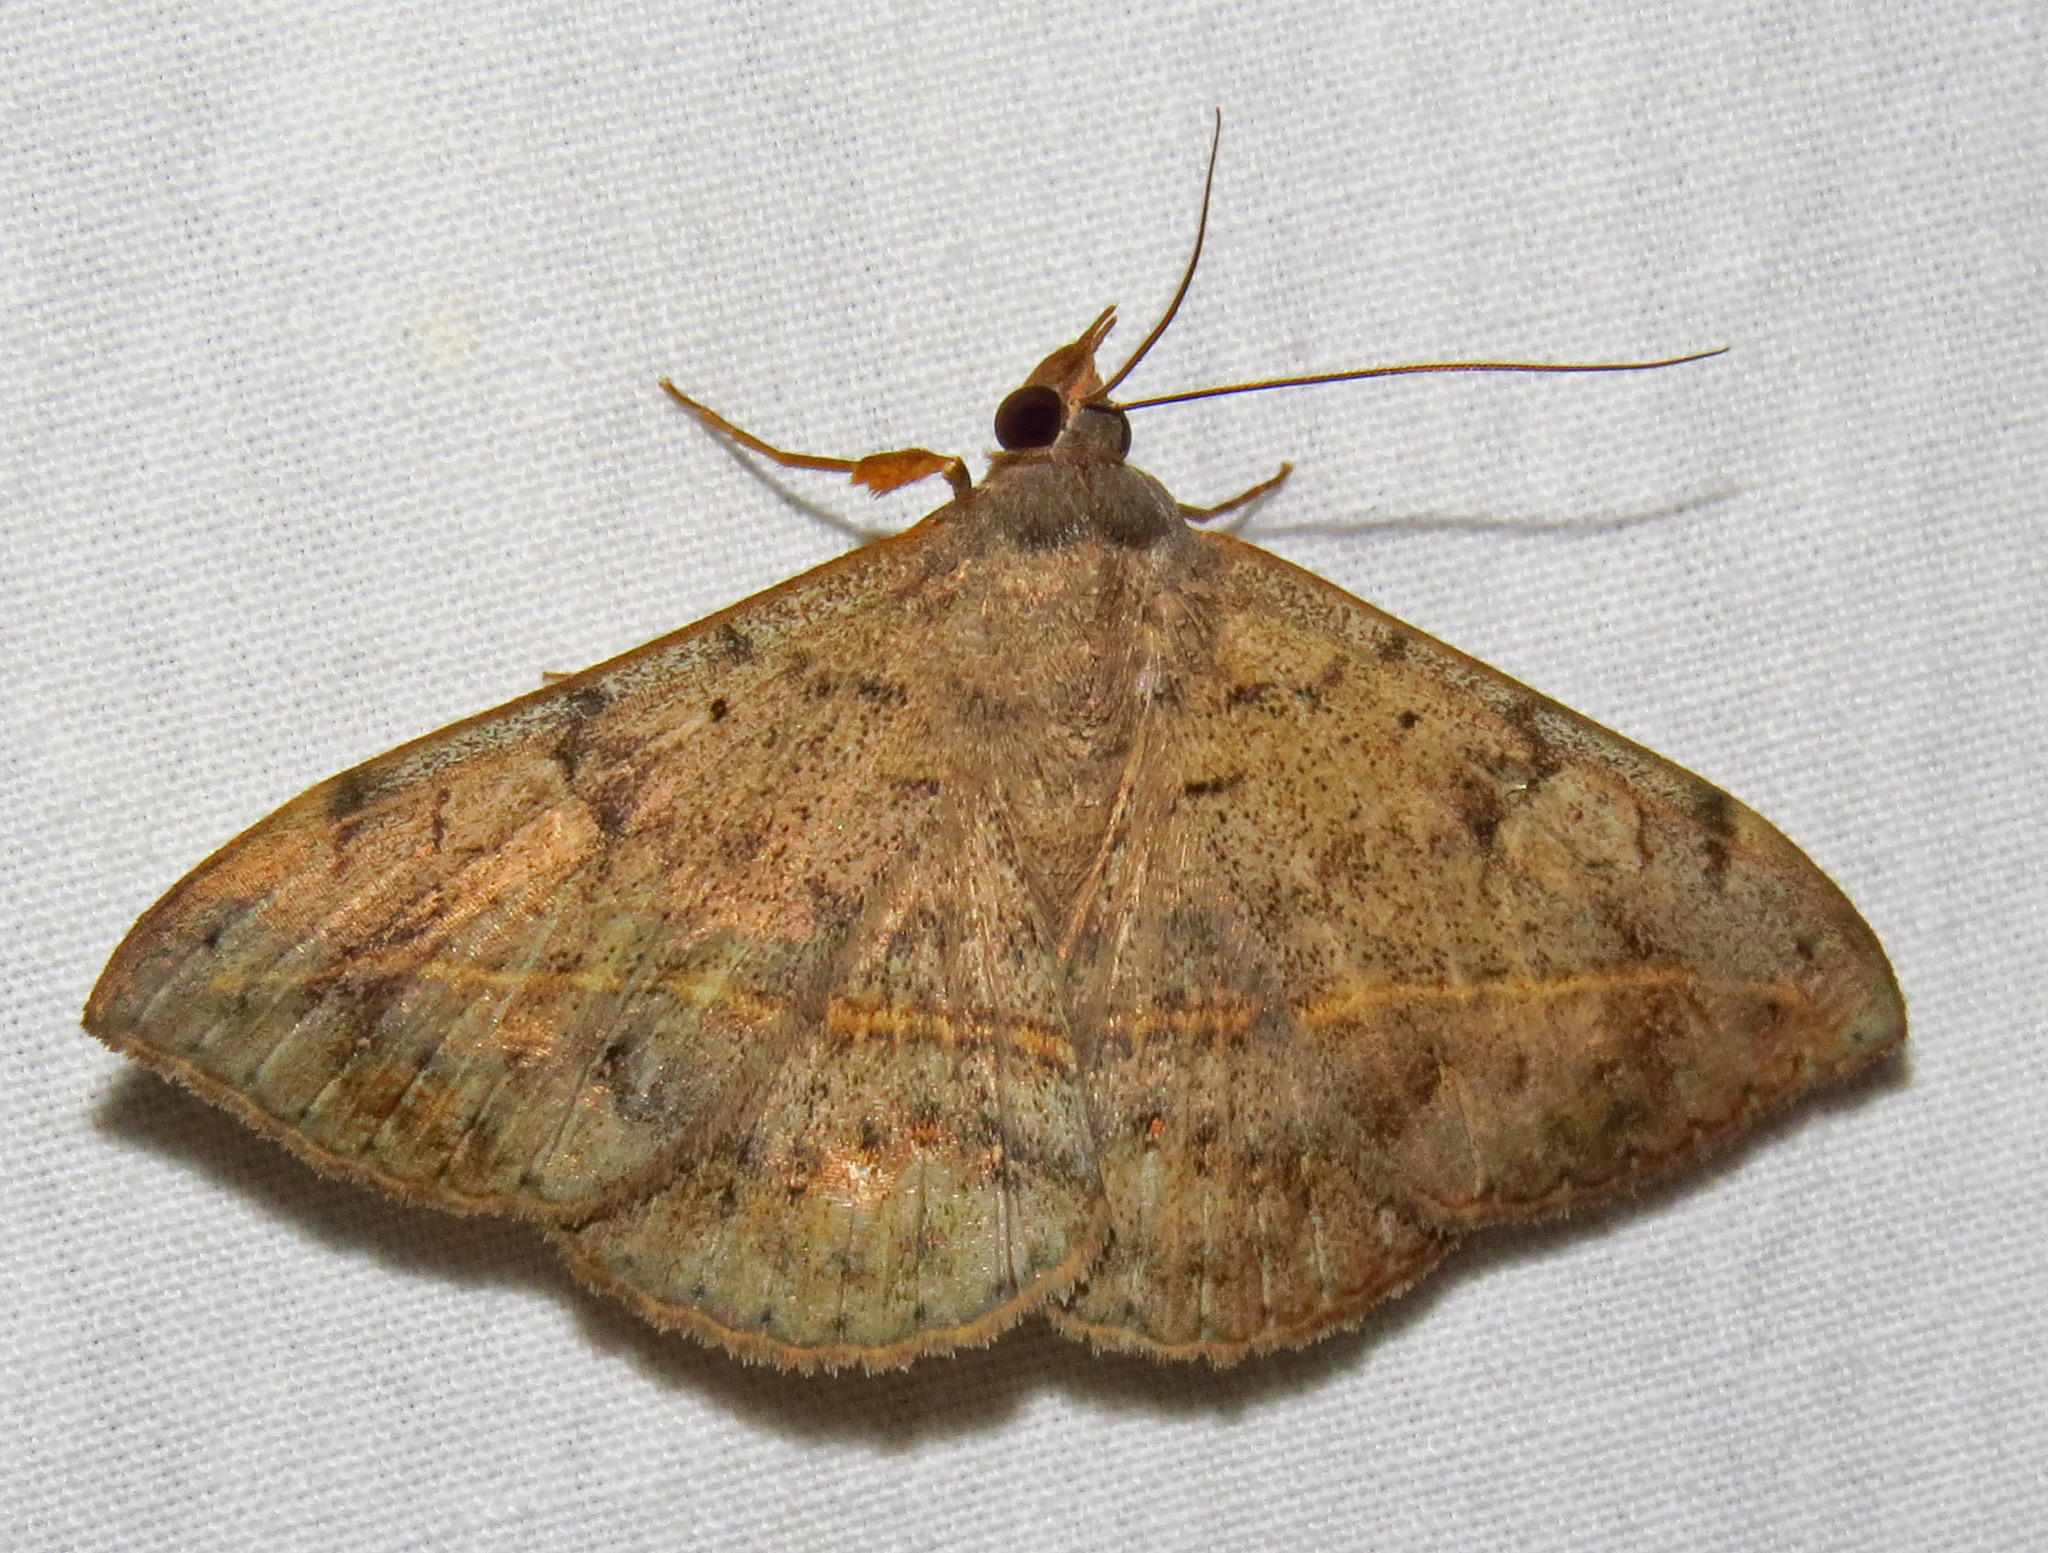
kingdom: Animalia
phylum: Arthropoda
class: Insecta
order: Lepidoptera
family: Erebidae
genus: Anticarsia
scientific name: Anticarsia gemmatalis
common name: Cutworm moth
